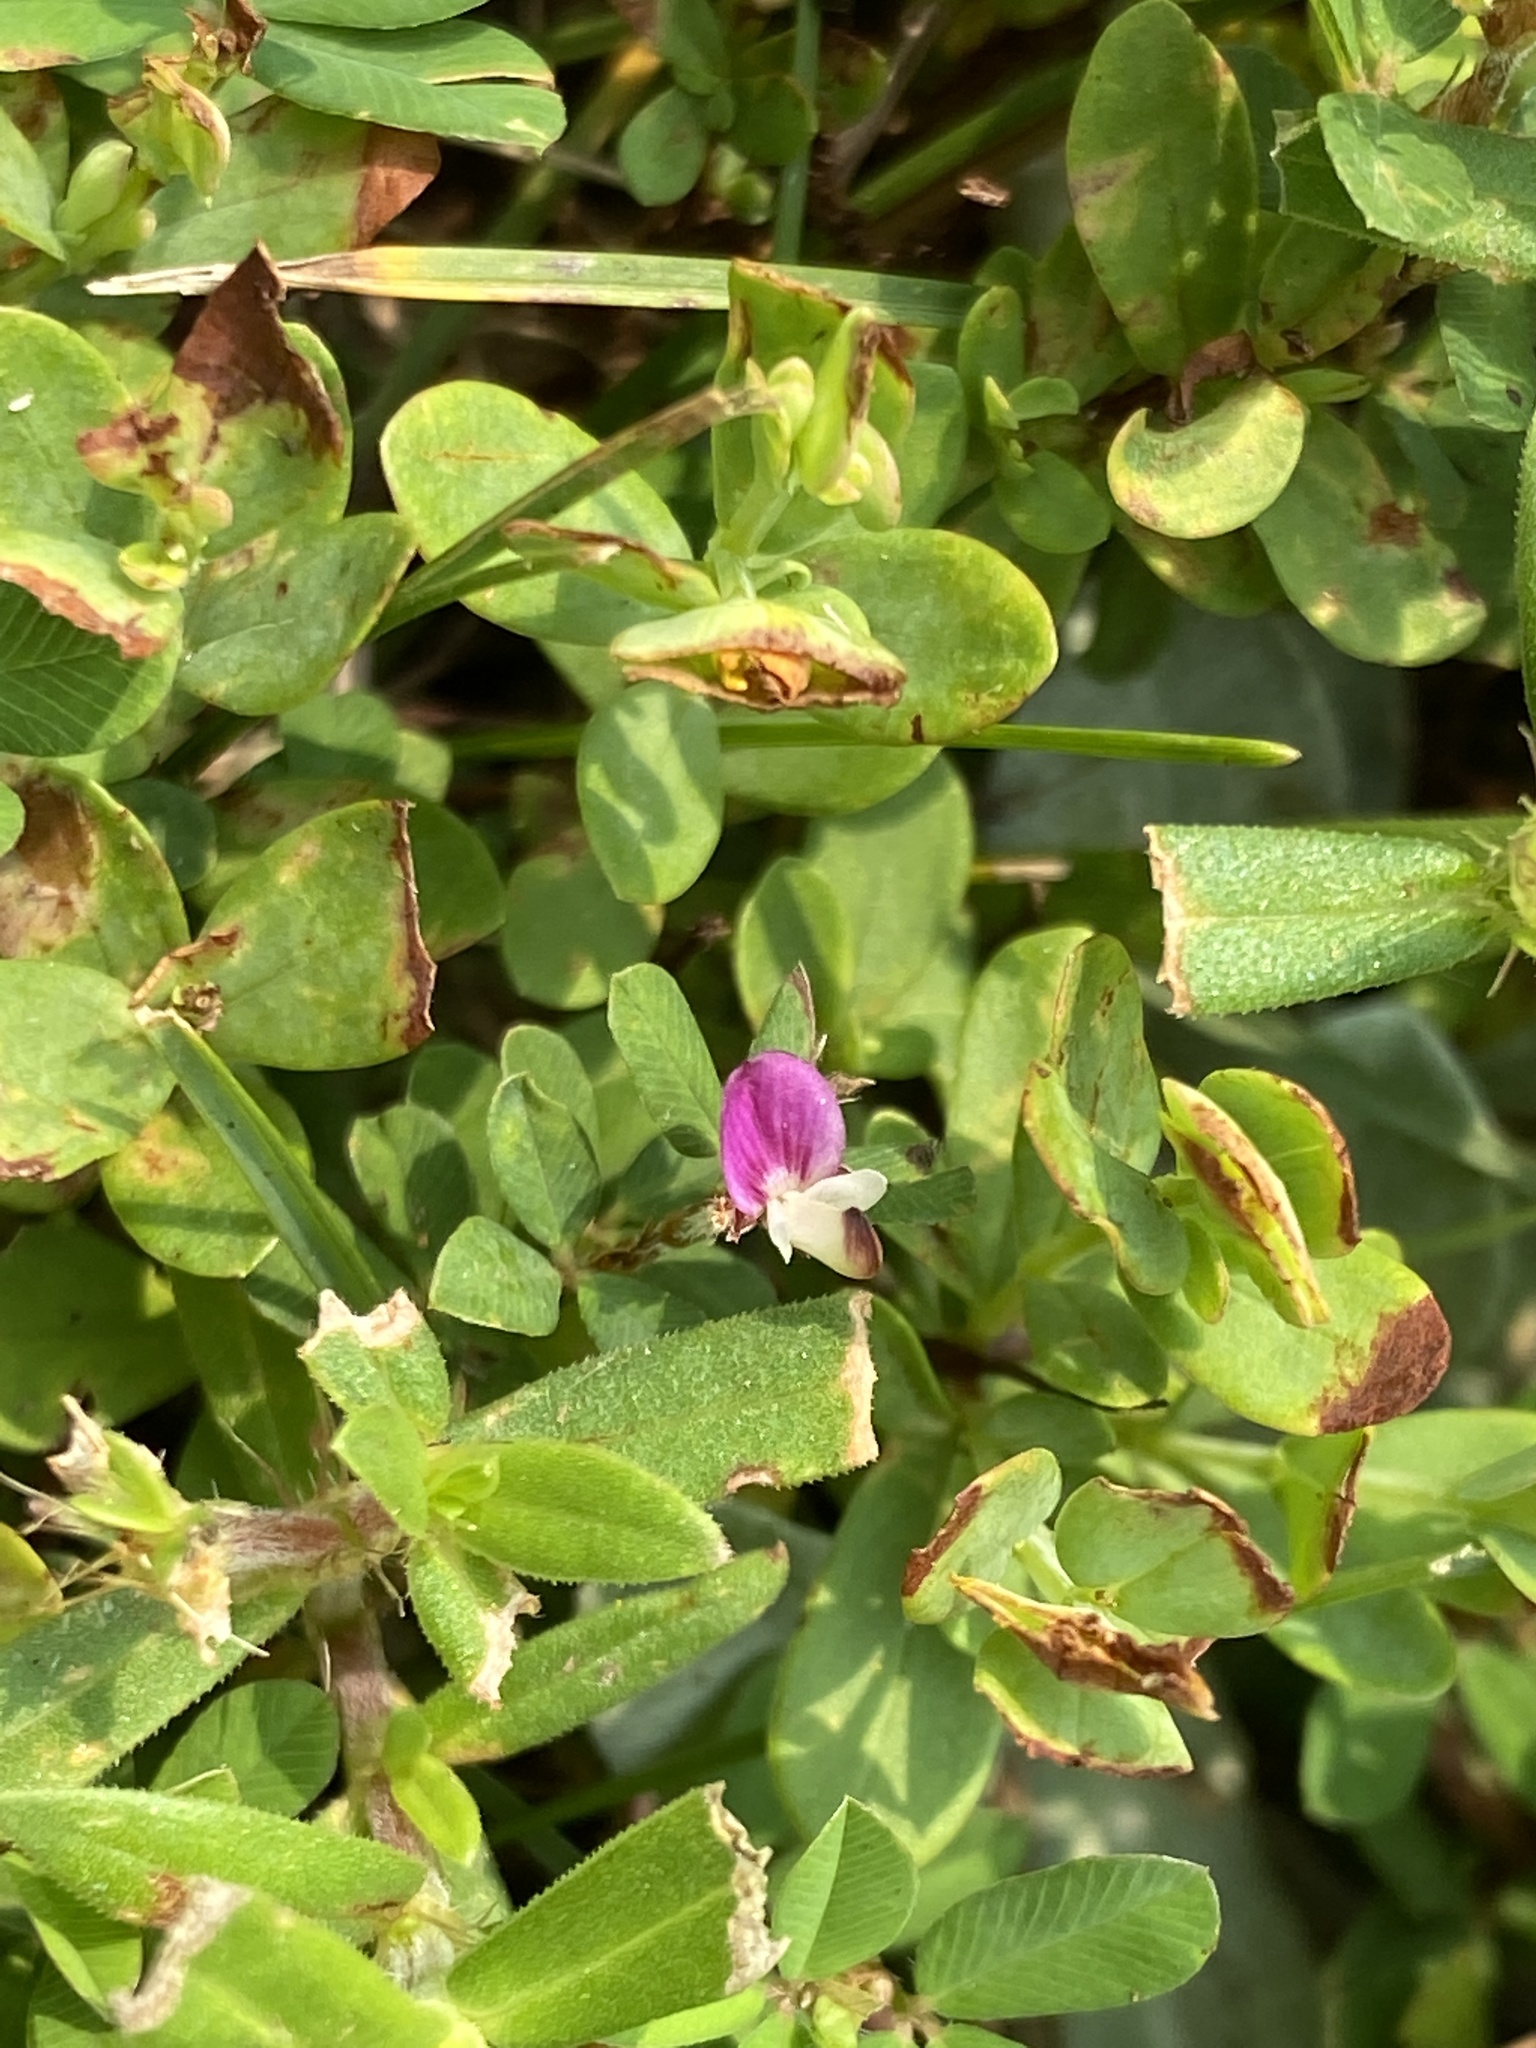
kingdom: Plantae
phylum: Tracheophyta
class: Magnoliopsida
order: Fabales
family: Fabaceae
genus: Kummerowia
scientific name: Kummerowia striata
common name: Japanese clover
